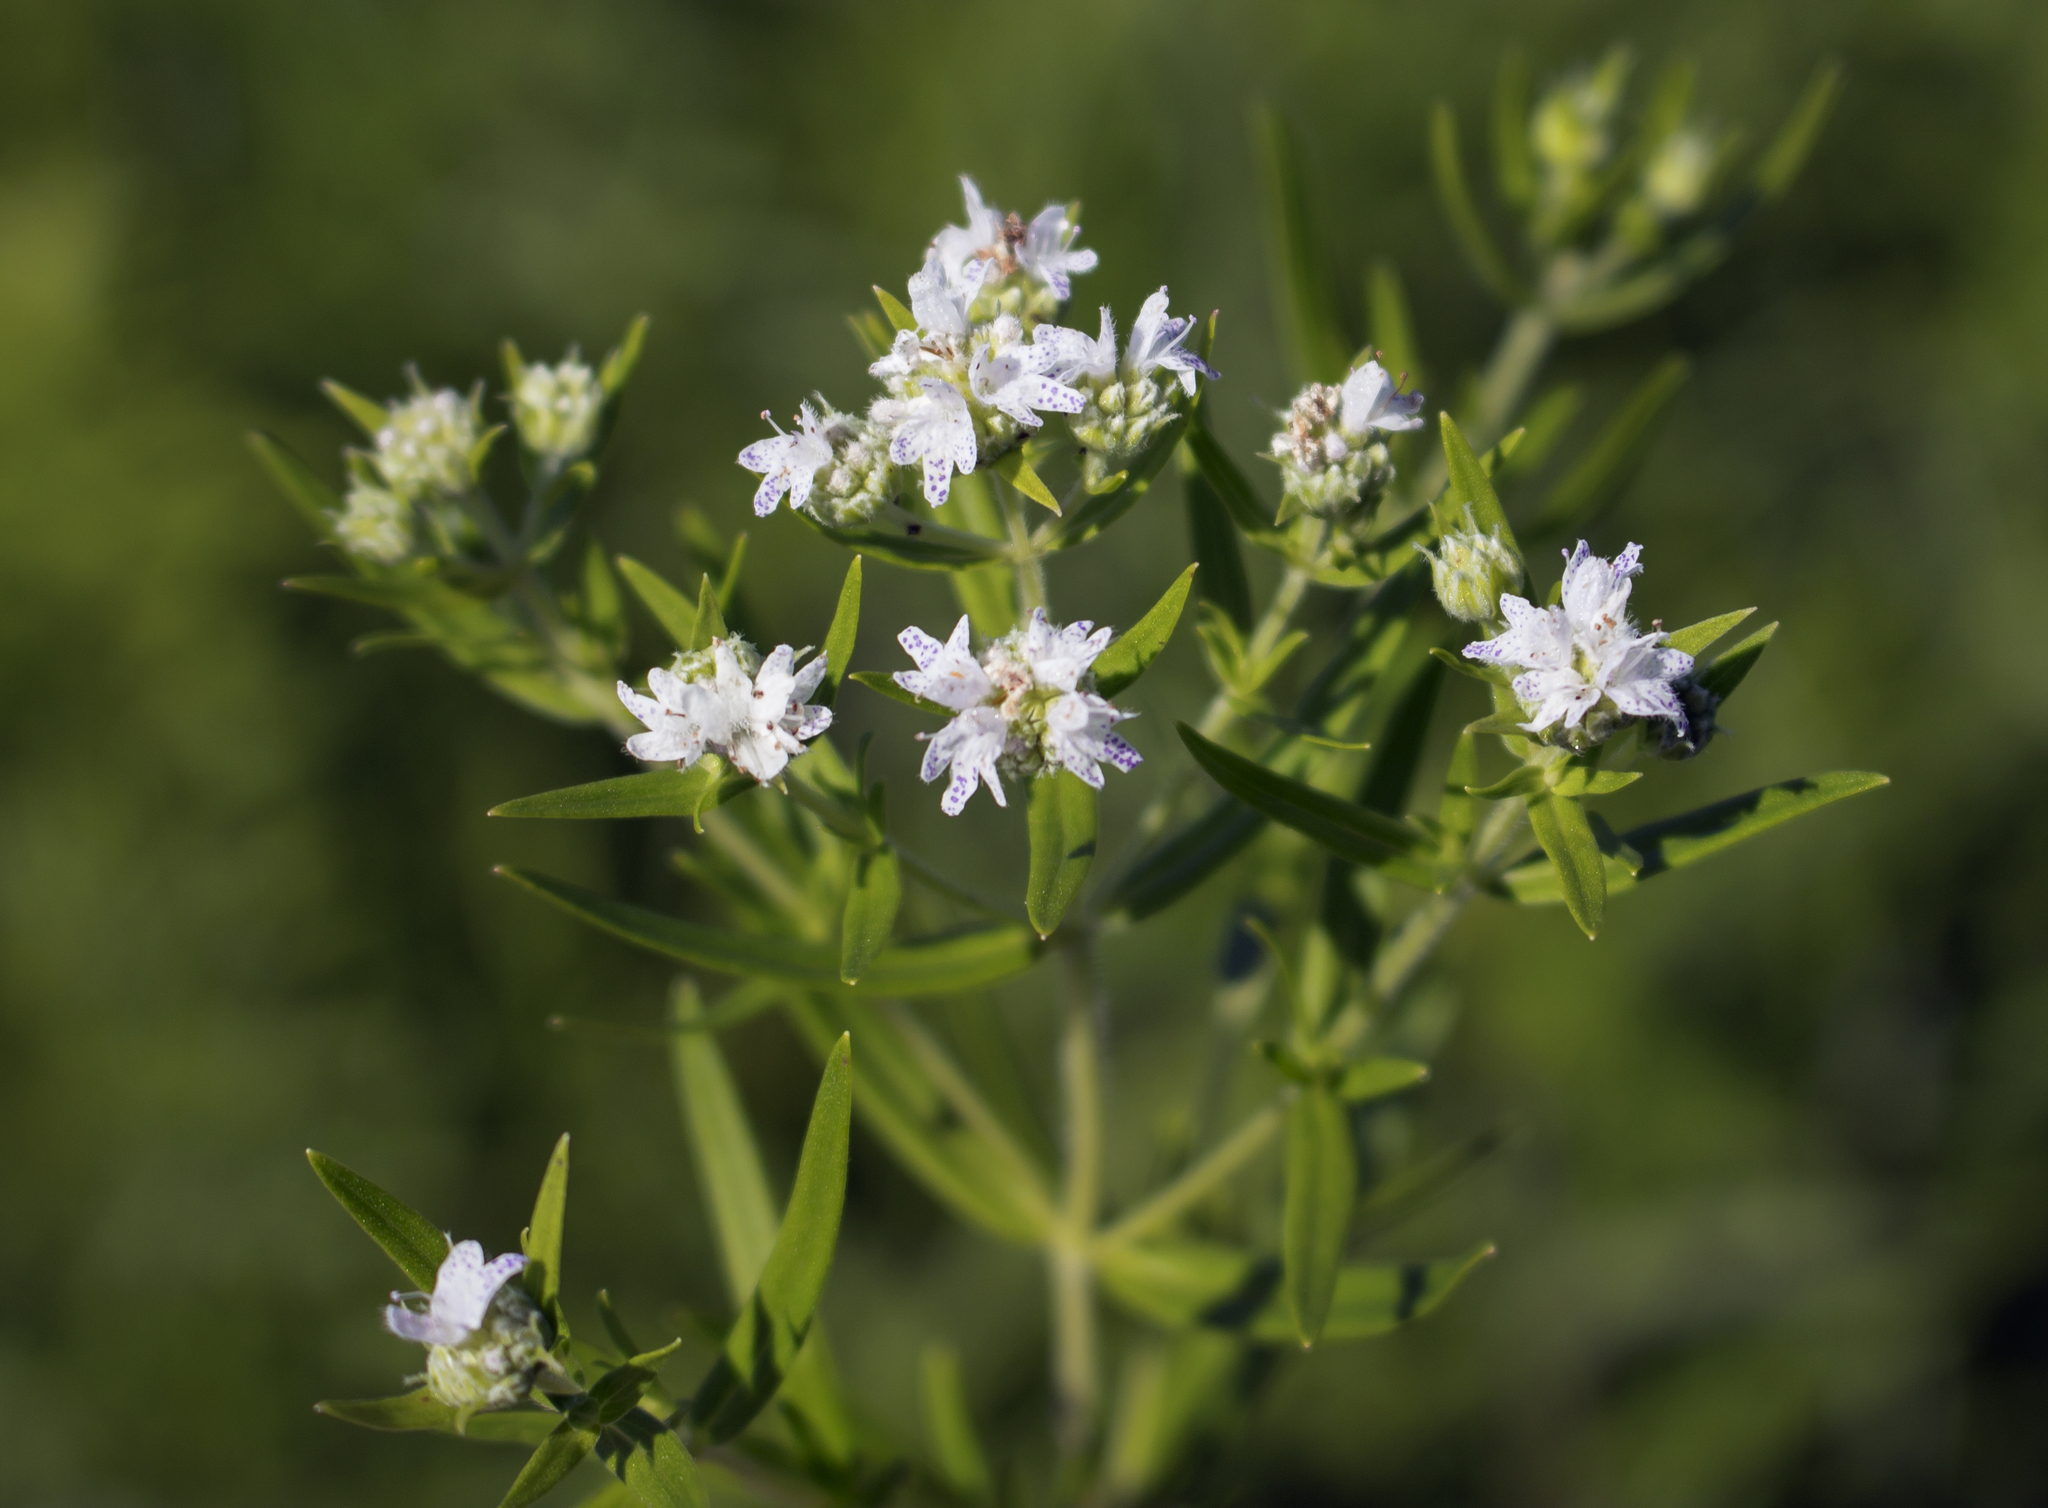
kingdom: Plantae
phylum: Tracheophyta
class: Magnoliopsida
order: Lamiales
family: Lamiaceae
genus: Pycnanthemum
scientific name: Pycnanthemum virginianum
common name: Virginia mountain-mint
